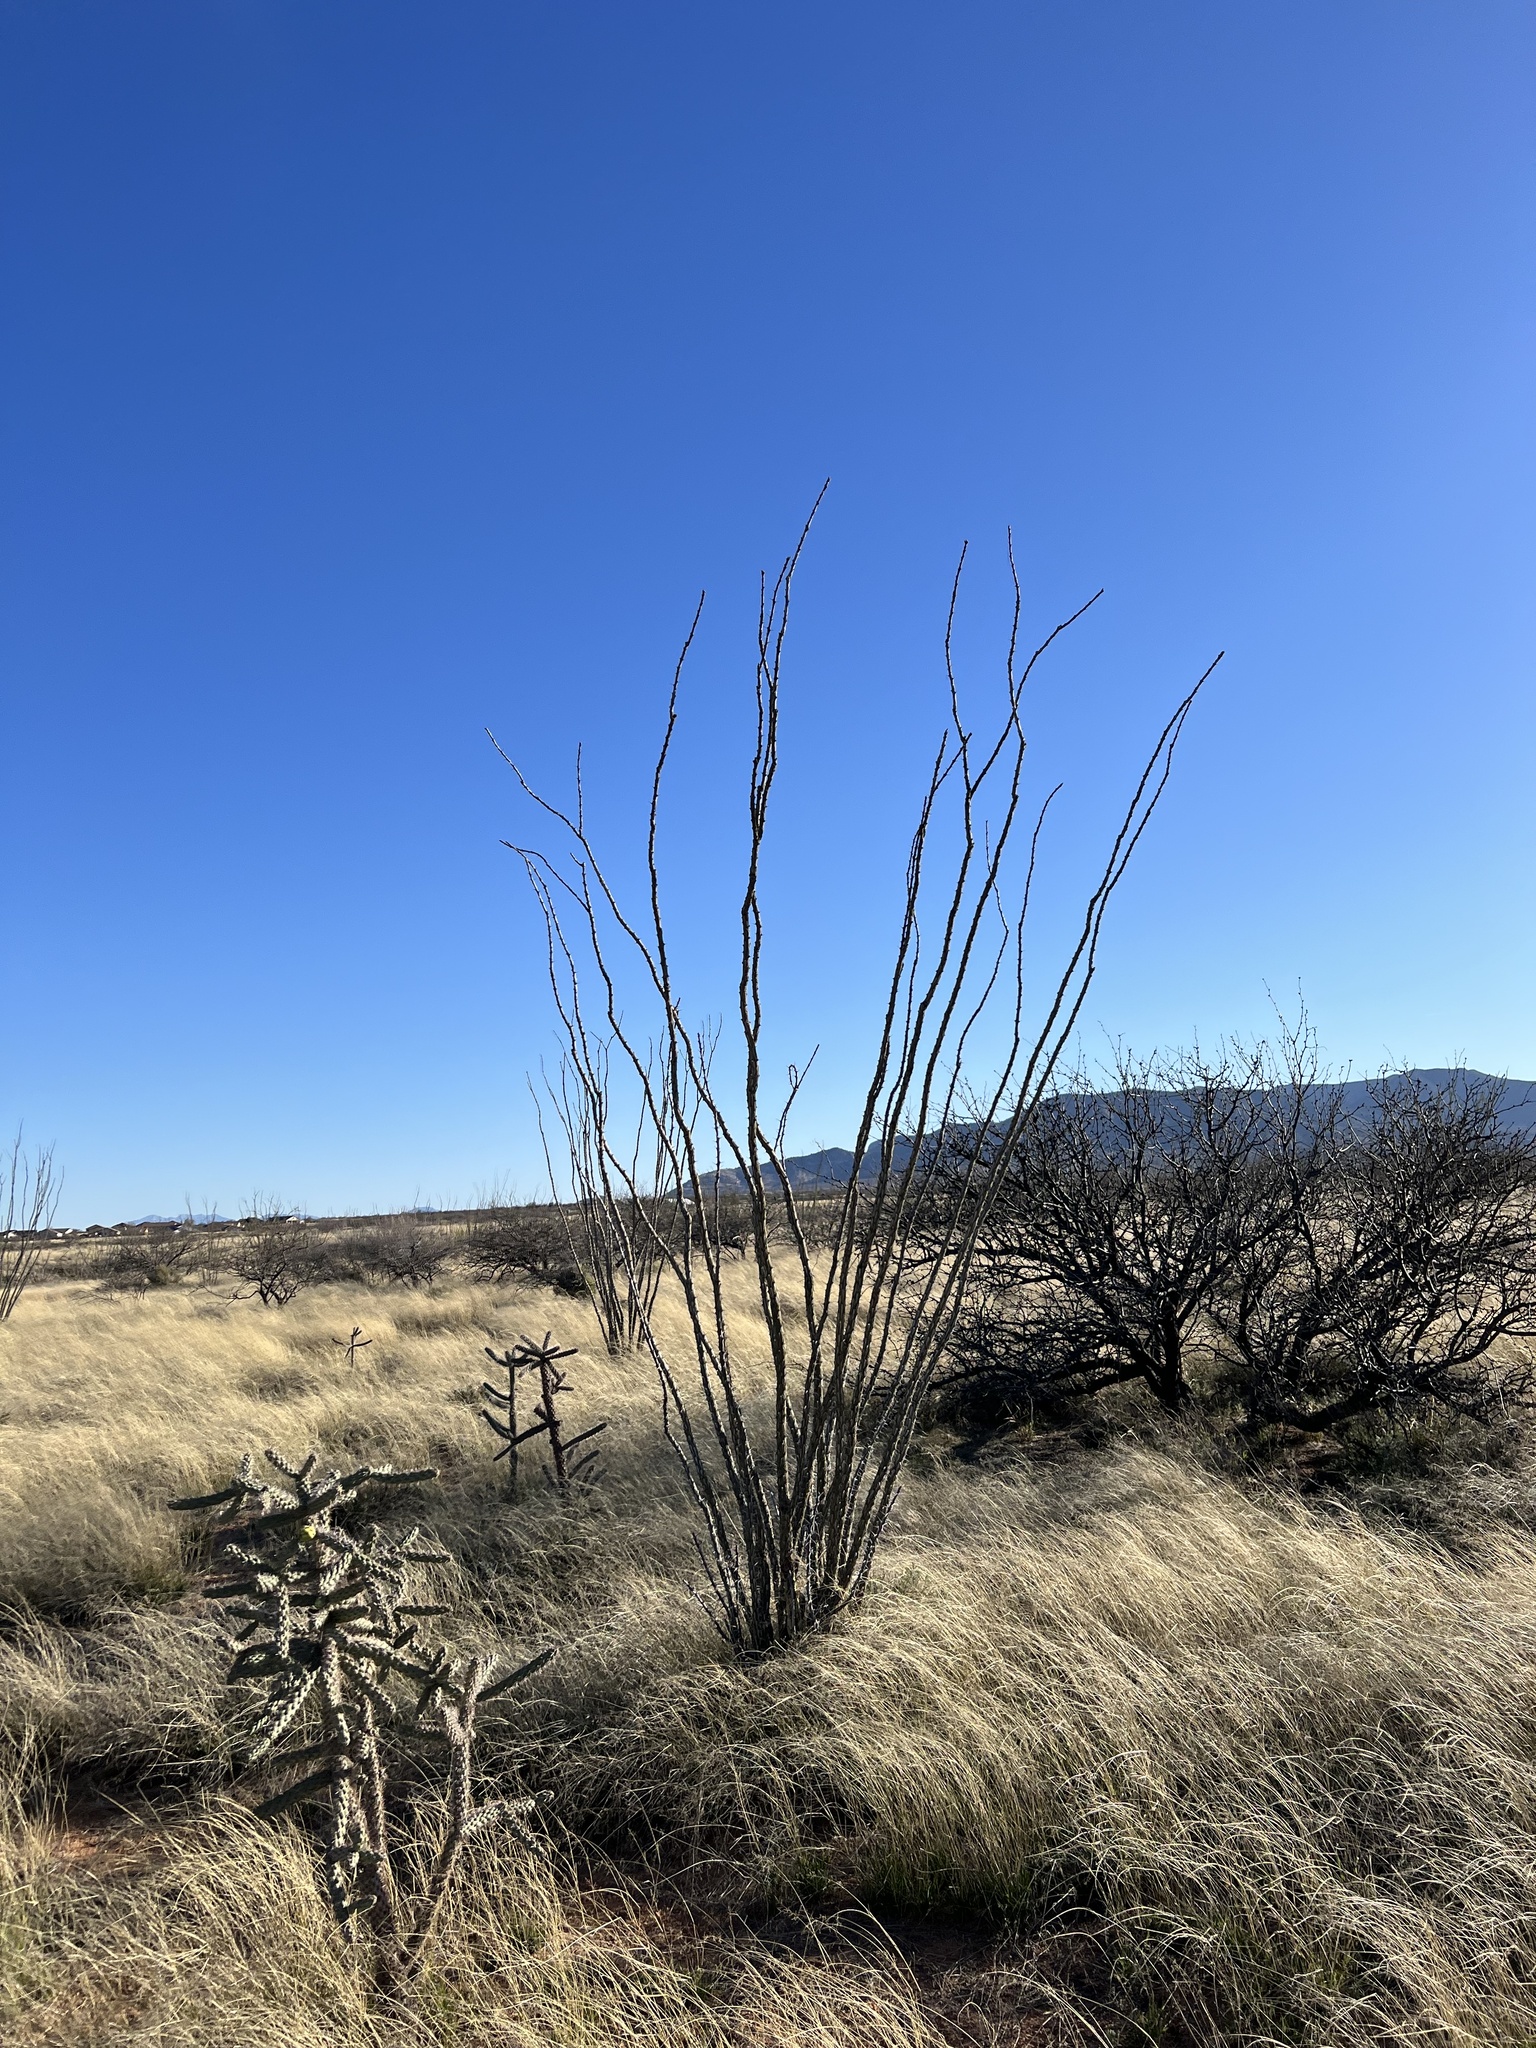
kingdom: Plantae
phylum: Tracheophyta
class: Magnoliopsida
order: Ericales
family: Fouquieriaceae
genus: Fouquieria
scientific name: Fouquieria splendens
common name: Vine-cactus
